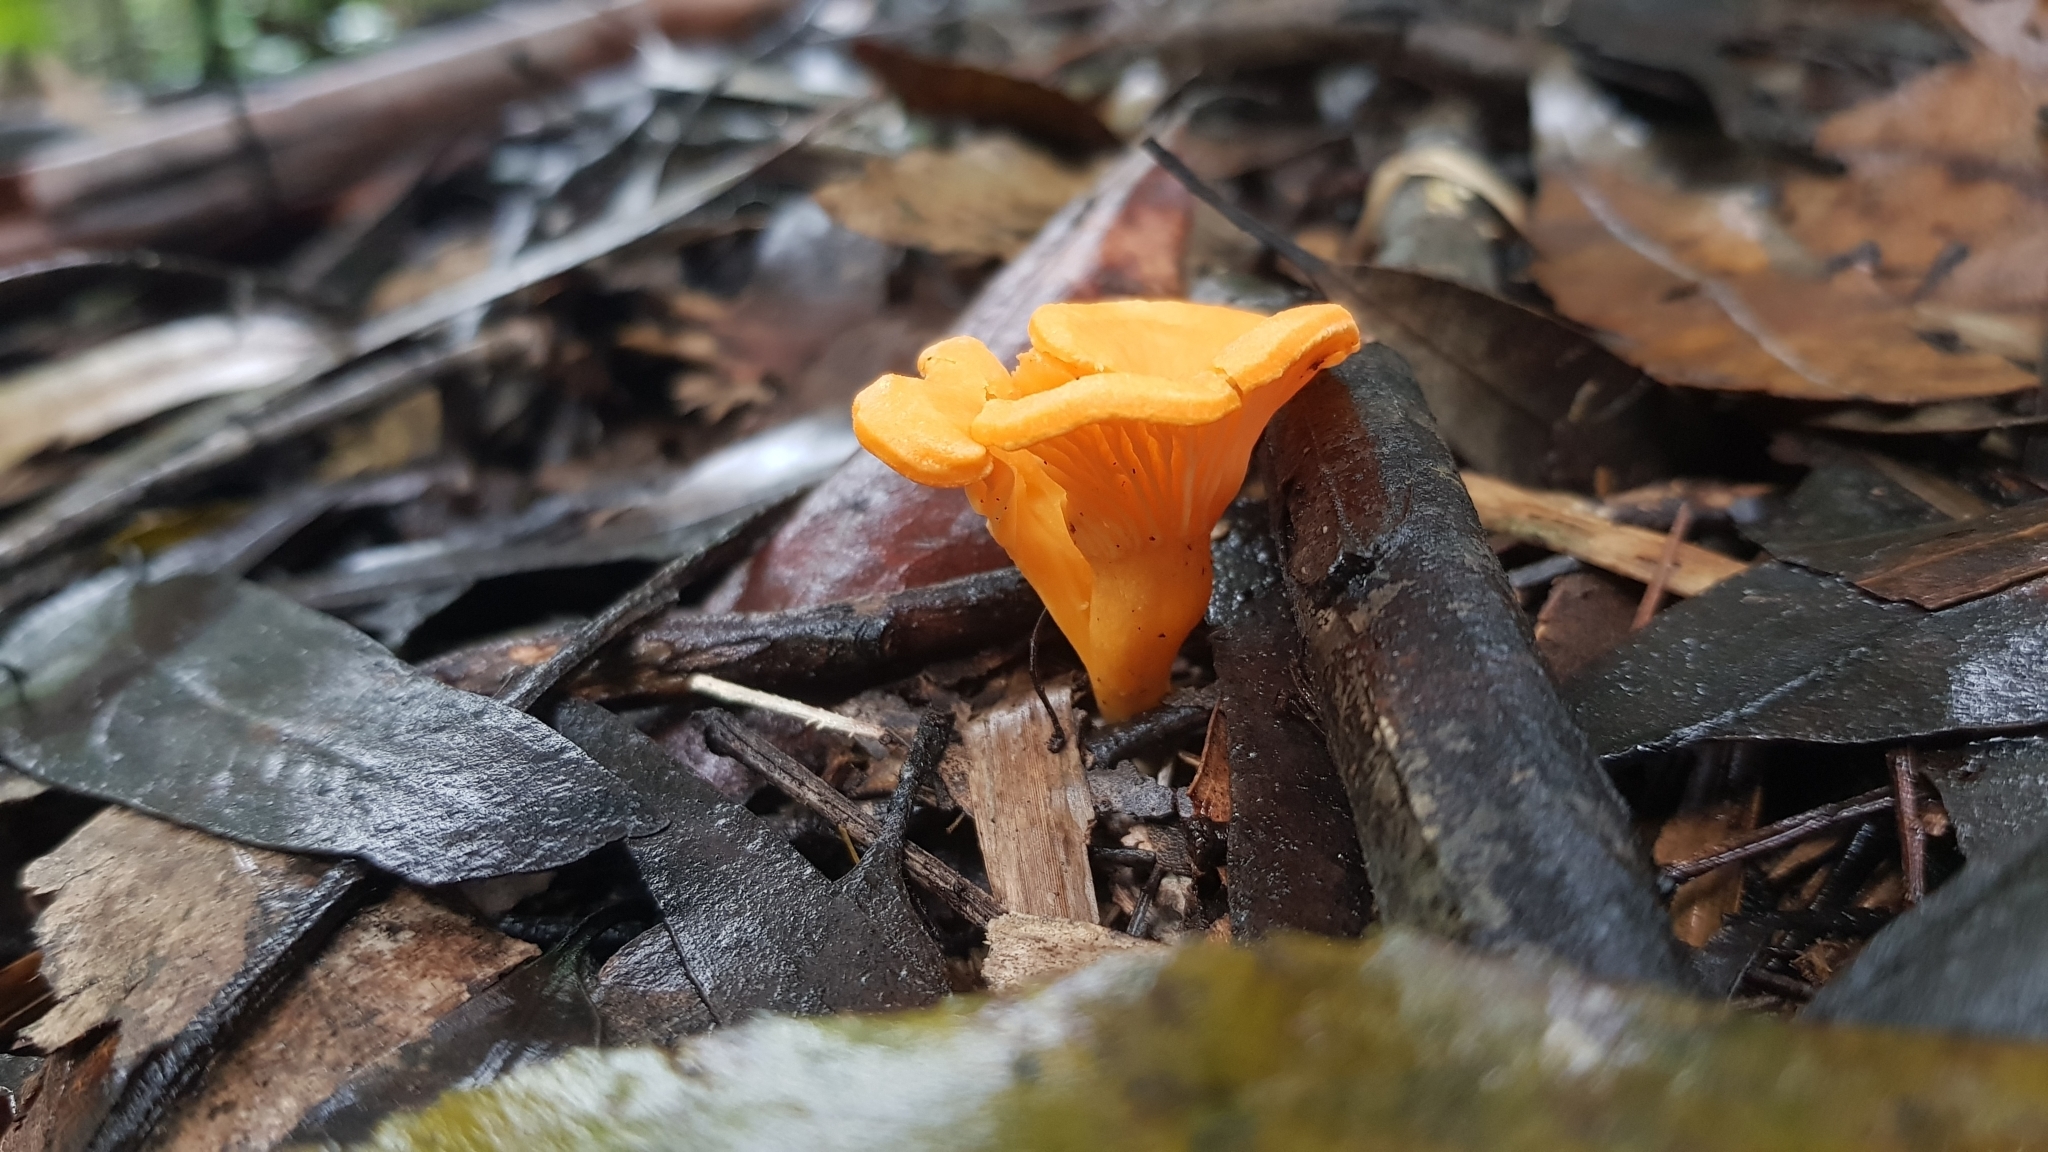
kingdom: Fungi
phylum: Basidiomycota
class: Agaricomycetes
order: Cantharellales
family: Hydnaceae
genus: Cantharellus
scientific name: Cantharellus
